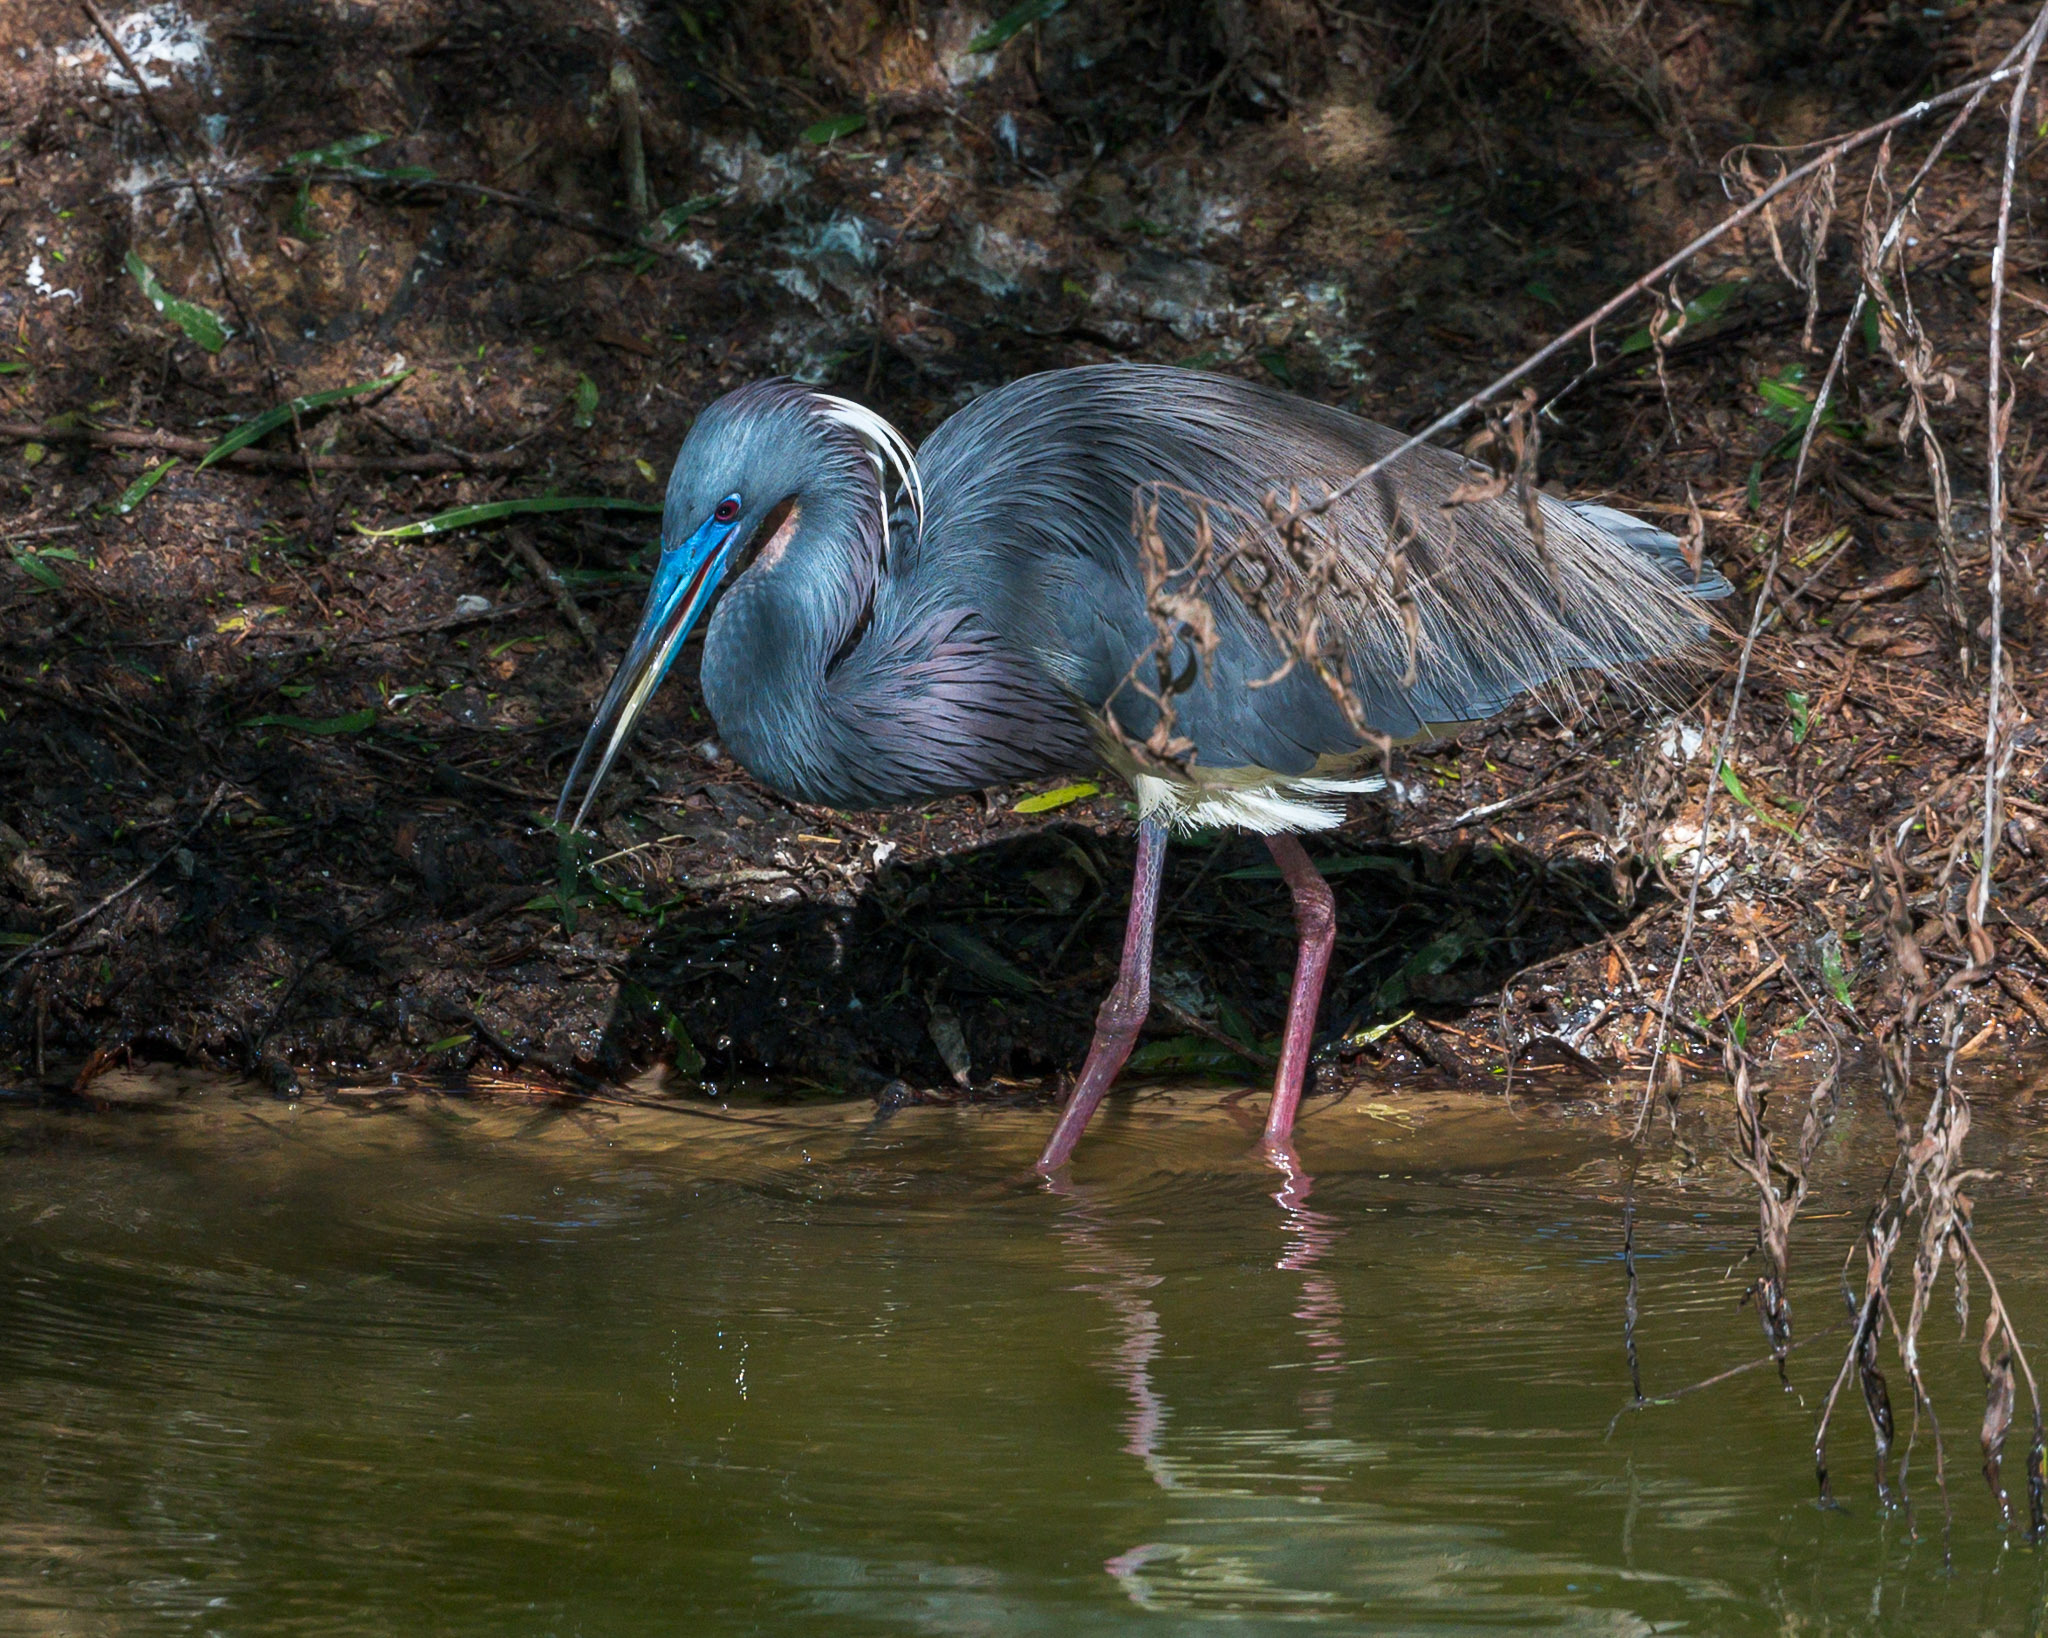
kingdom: Animalia
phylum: Chordata
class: Aves
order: Pelecaniformes
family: Ardeidae
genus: Egretta
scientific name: Egretta tricolor
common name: Tricolored heron
